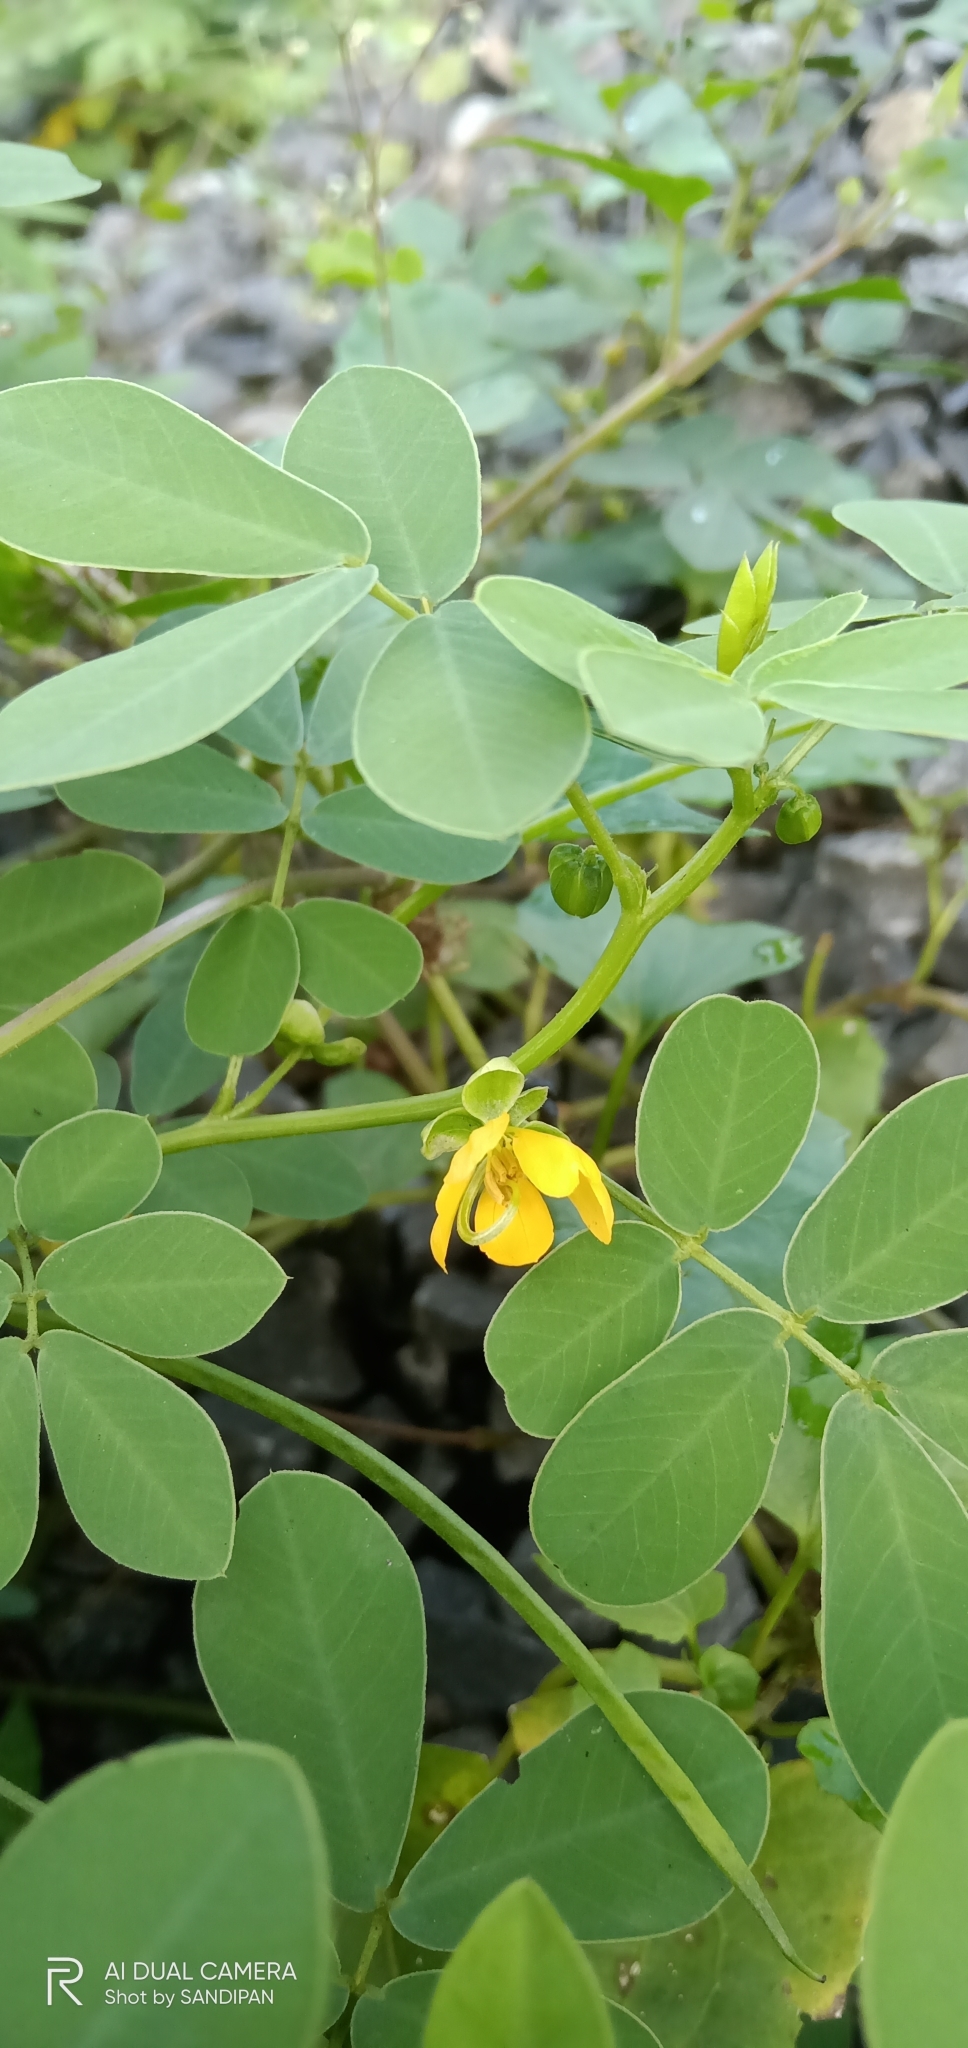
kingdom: Plantae
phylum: Tracheophyta
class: Magnoliopsida
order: Fabales
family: Fabaceae
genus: Senna
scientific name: Senna tora
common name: Sickle senna
